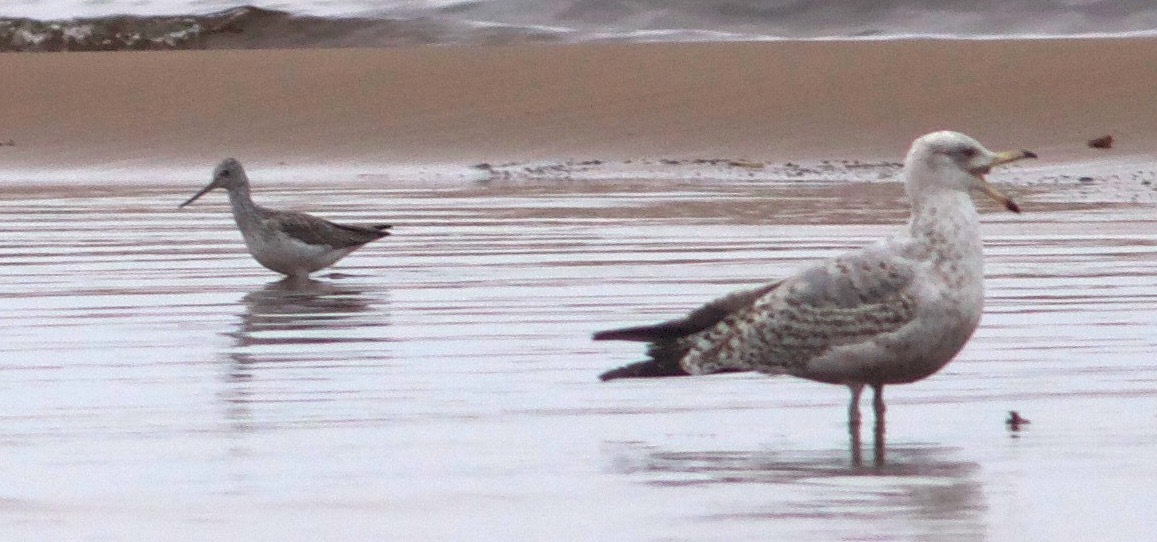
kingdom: Animalia
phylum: Chordata
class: Aves
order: Charadriiformes
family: Scolopacidae
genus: Tringa
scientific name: Tringa nebularia
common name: Common greenshank
